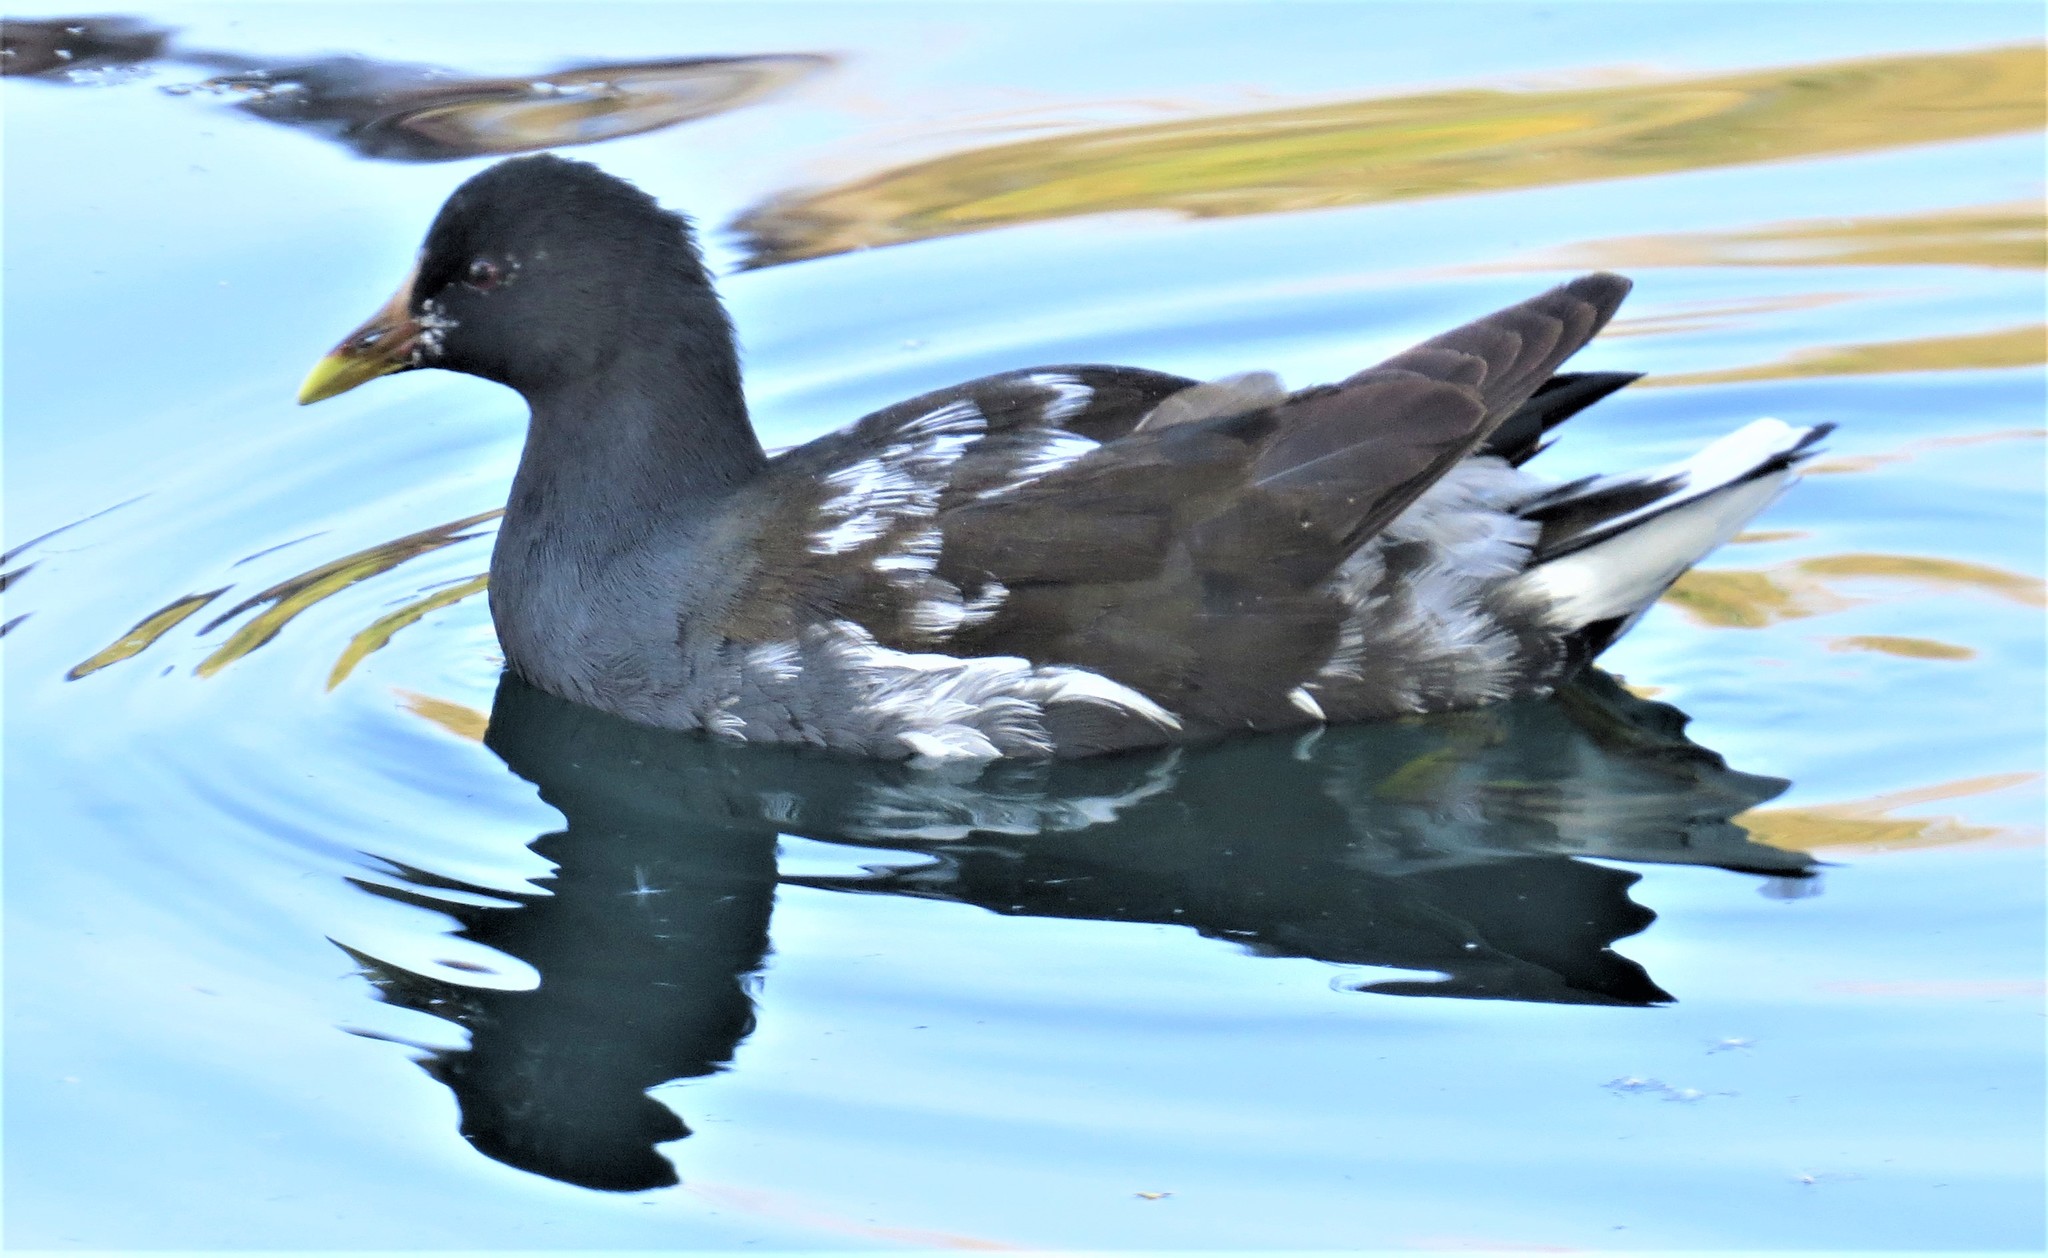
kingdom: Animalia
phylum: Chordata
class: Aves
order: Gruiformes
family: Rallidae
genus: Gallinula
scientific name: Gallinula chloropus
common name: Common moorhen
